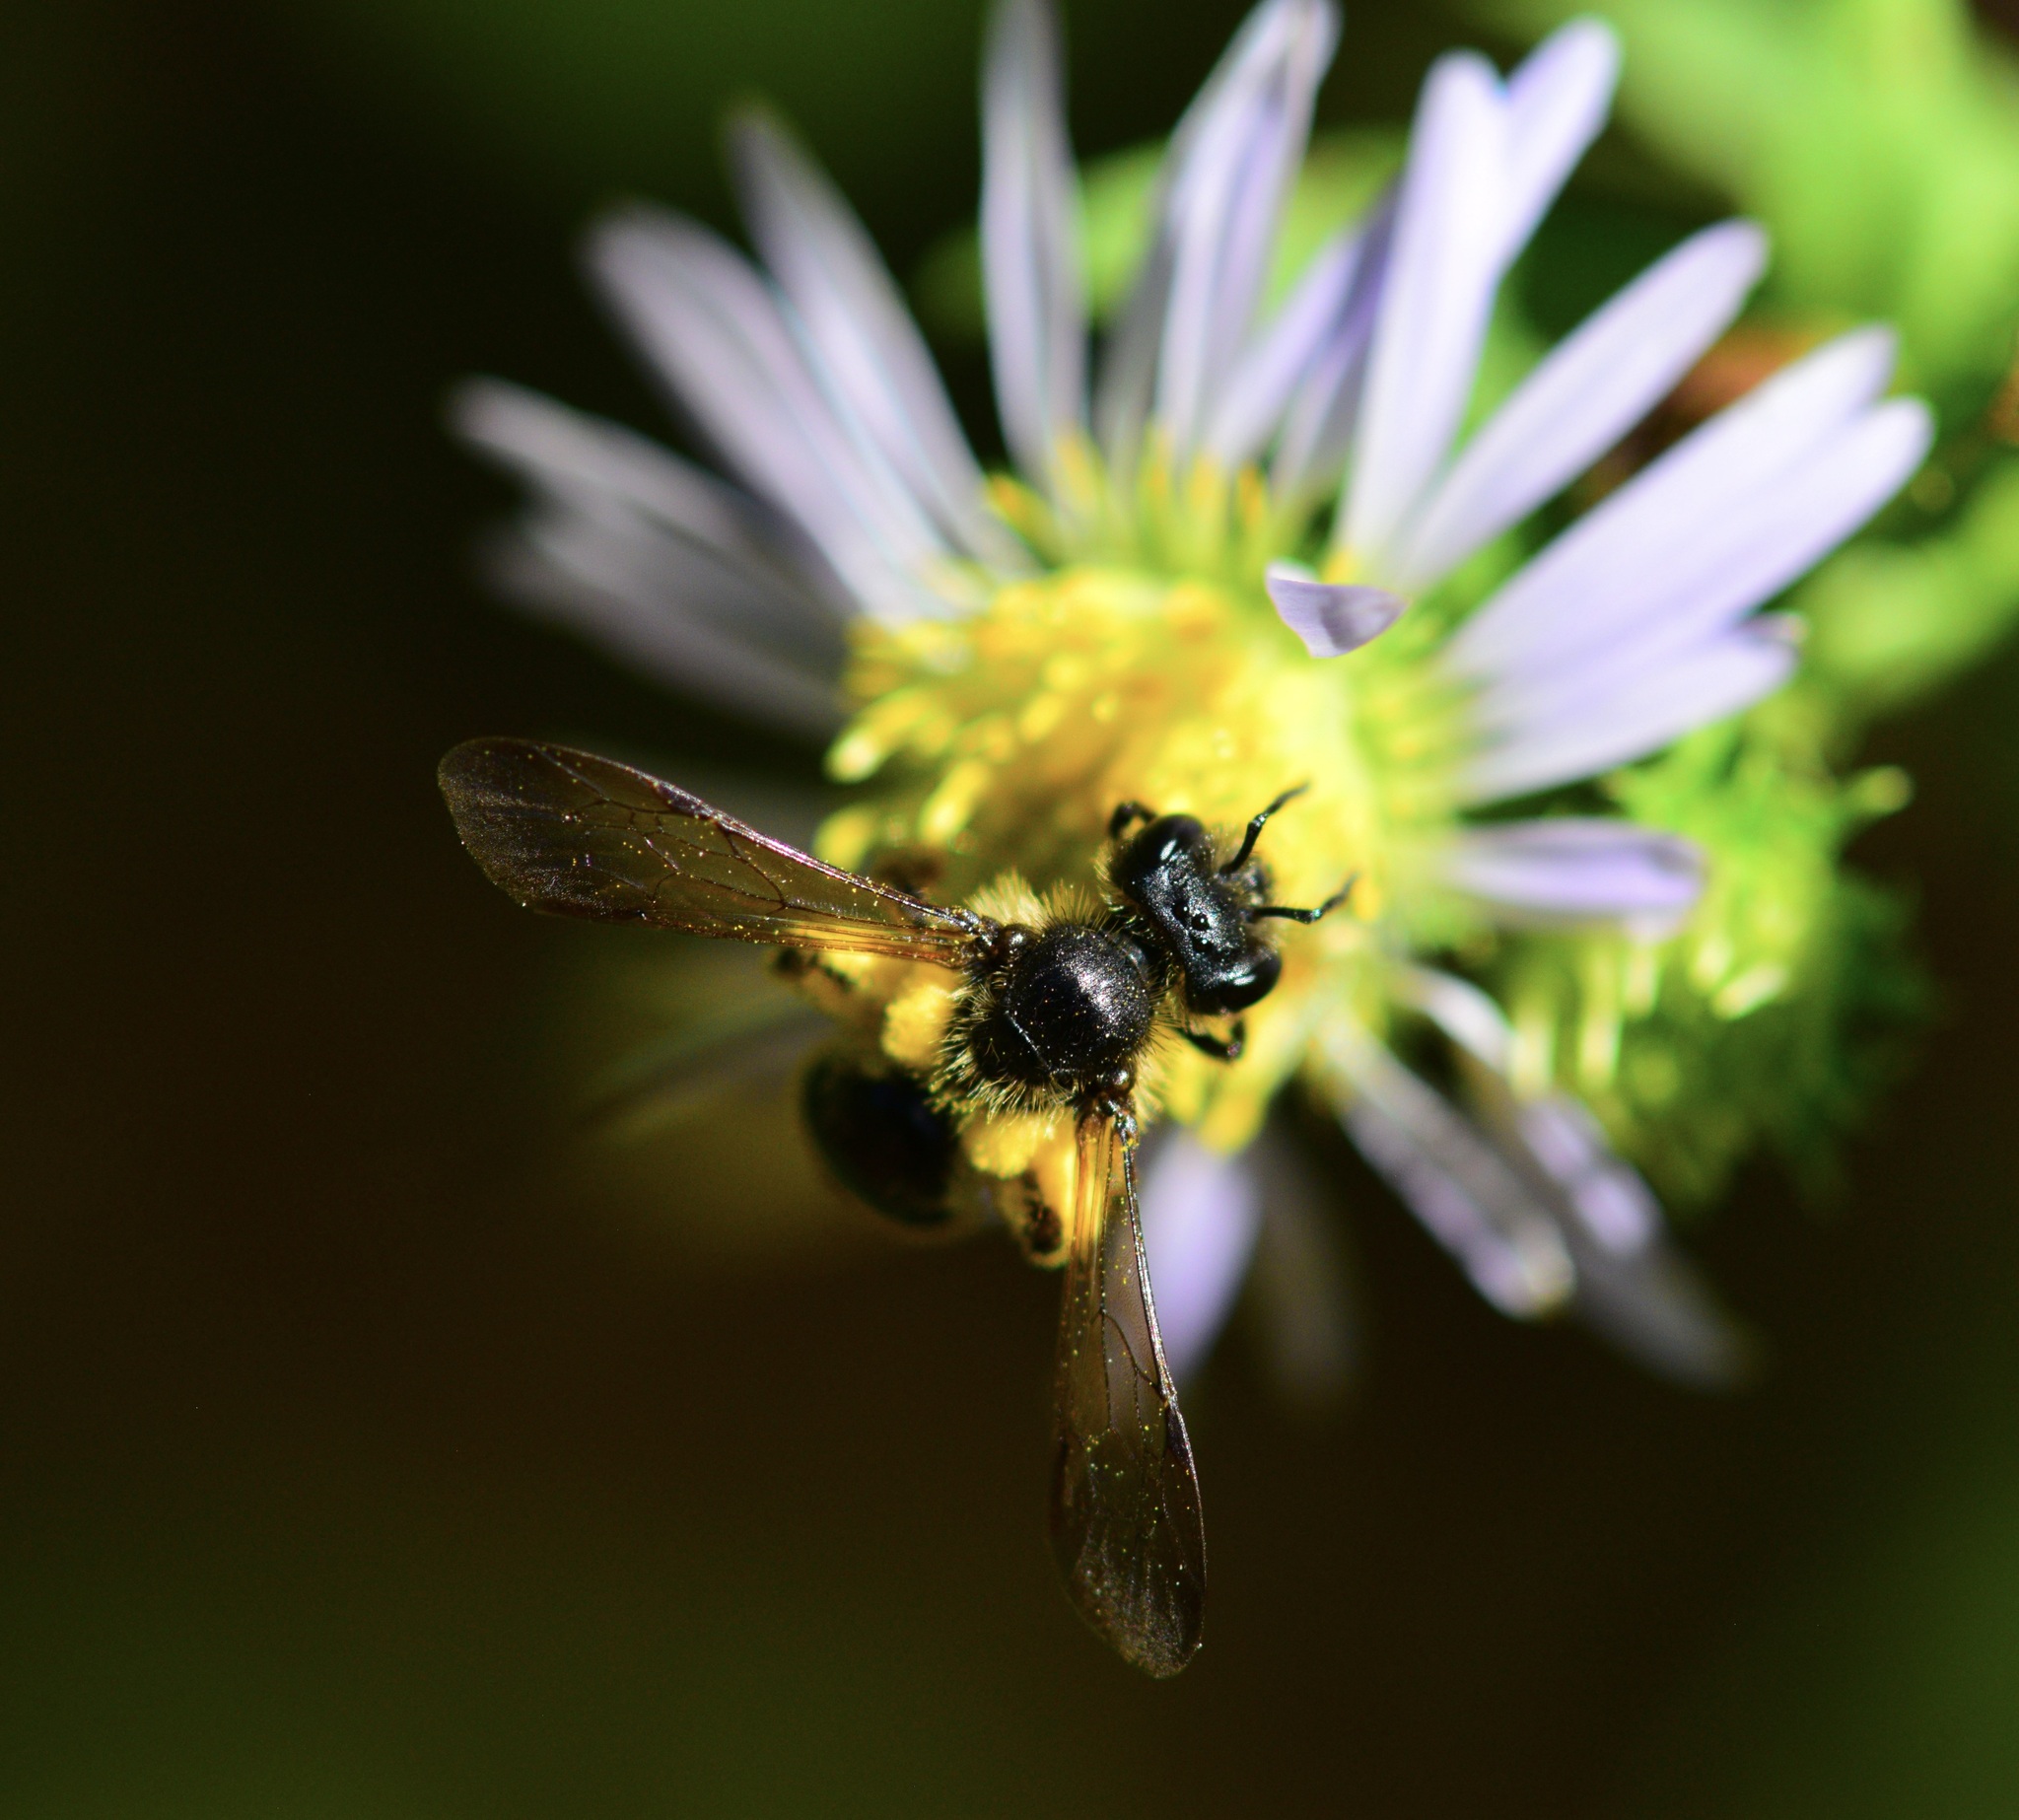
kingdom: Animalia
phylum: Arthropoda
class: Insecta
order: Hymenoptera
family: Andrenidae
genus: Andrena
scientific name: Andrena robervalensis
